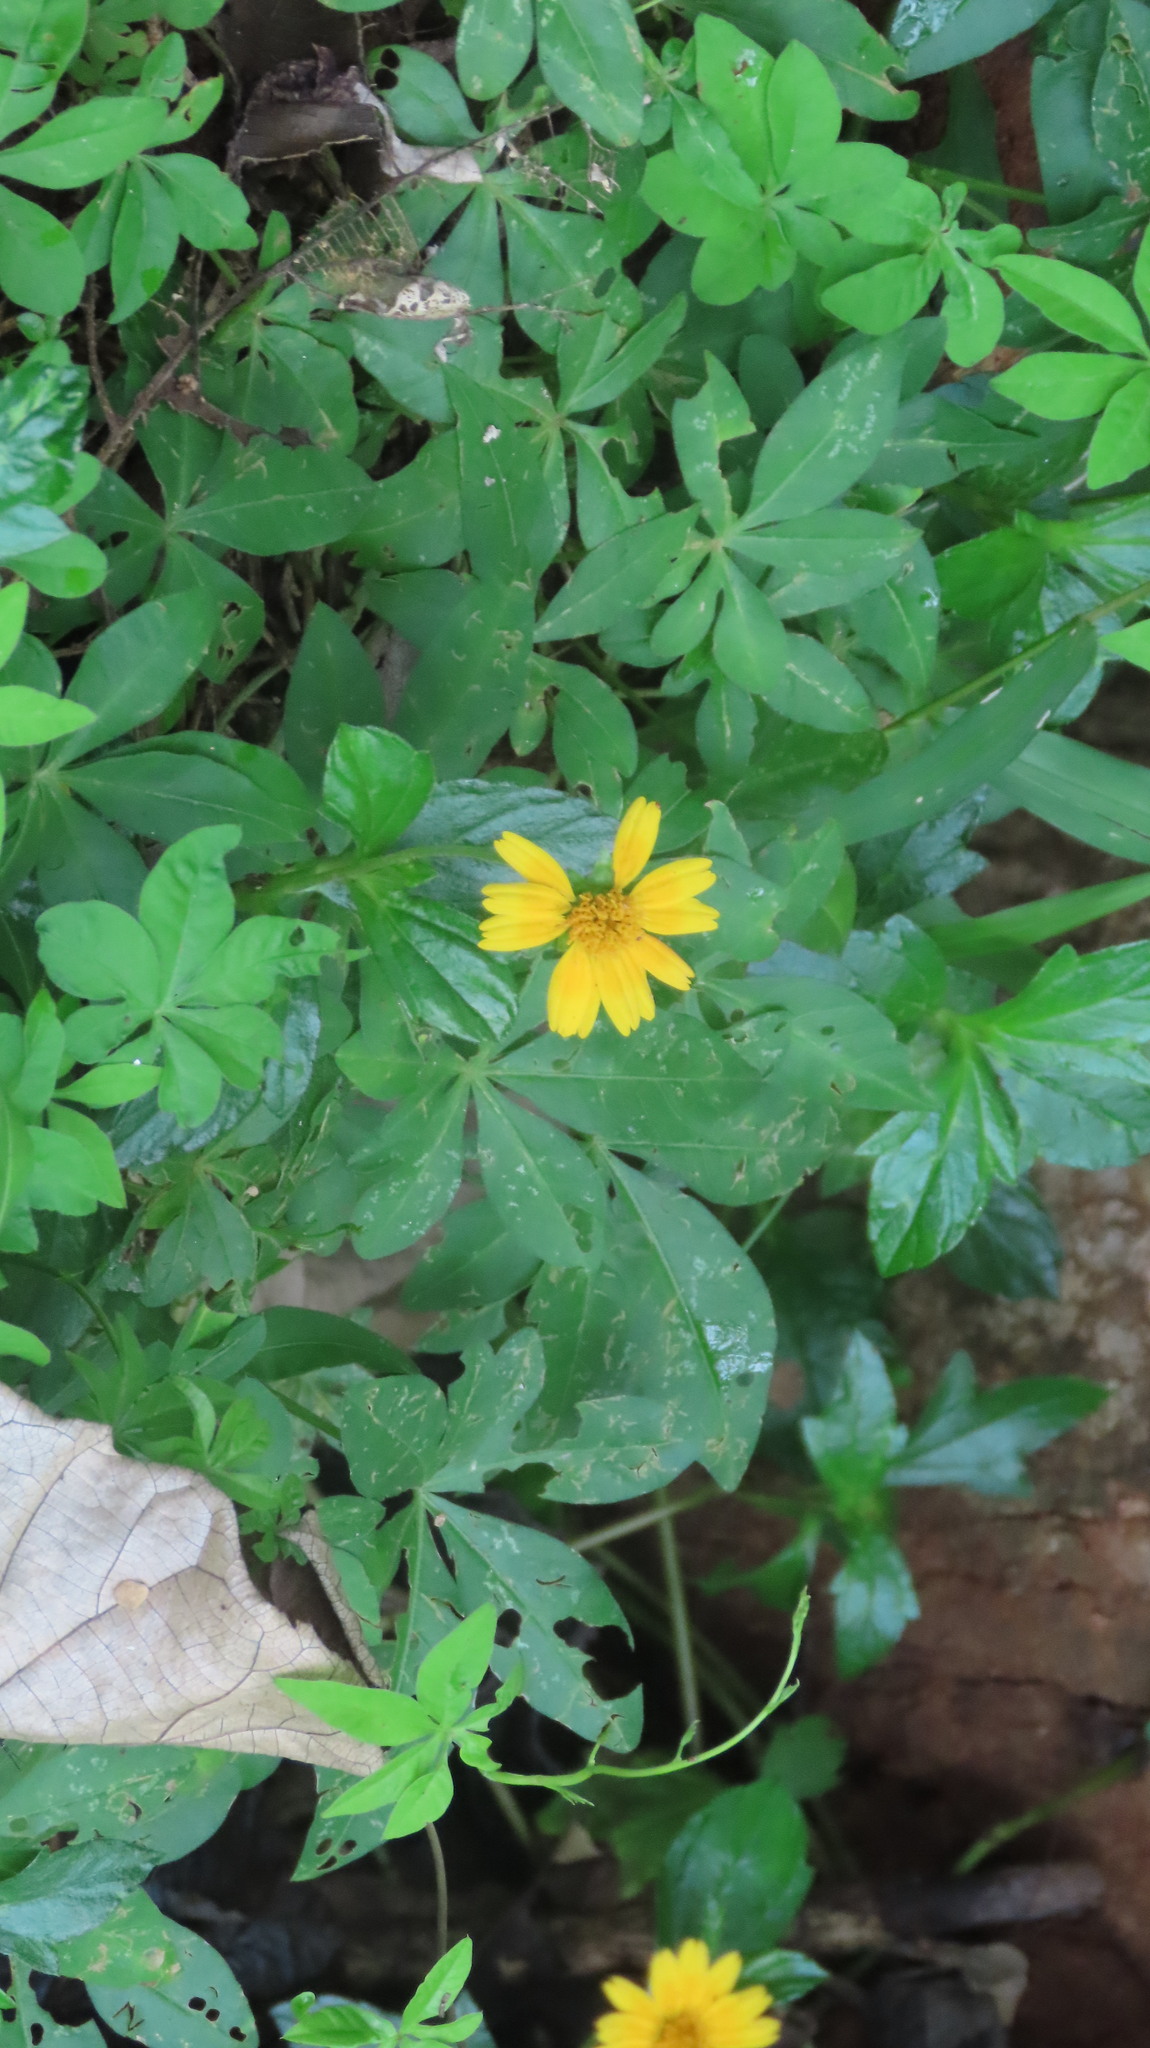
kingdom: Plantae
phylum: Tracheophyta
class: Magnoliopsida
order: Asterales
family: Asteraceae
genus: Sphagneticola
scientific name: Sphagneticola trilobata
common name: Bay biscayne creeping-oxeye
